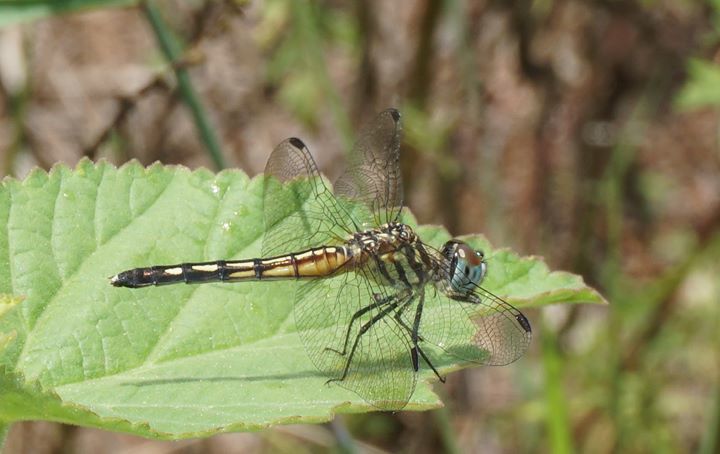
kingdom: Animalia
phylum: Arthropoda
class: Insecta
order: Odonata
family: Libellulidae
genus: Pachydiplax
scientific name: Pachydiplax longipennis
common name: Blue dasher
